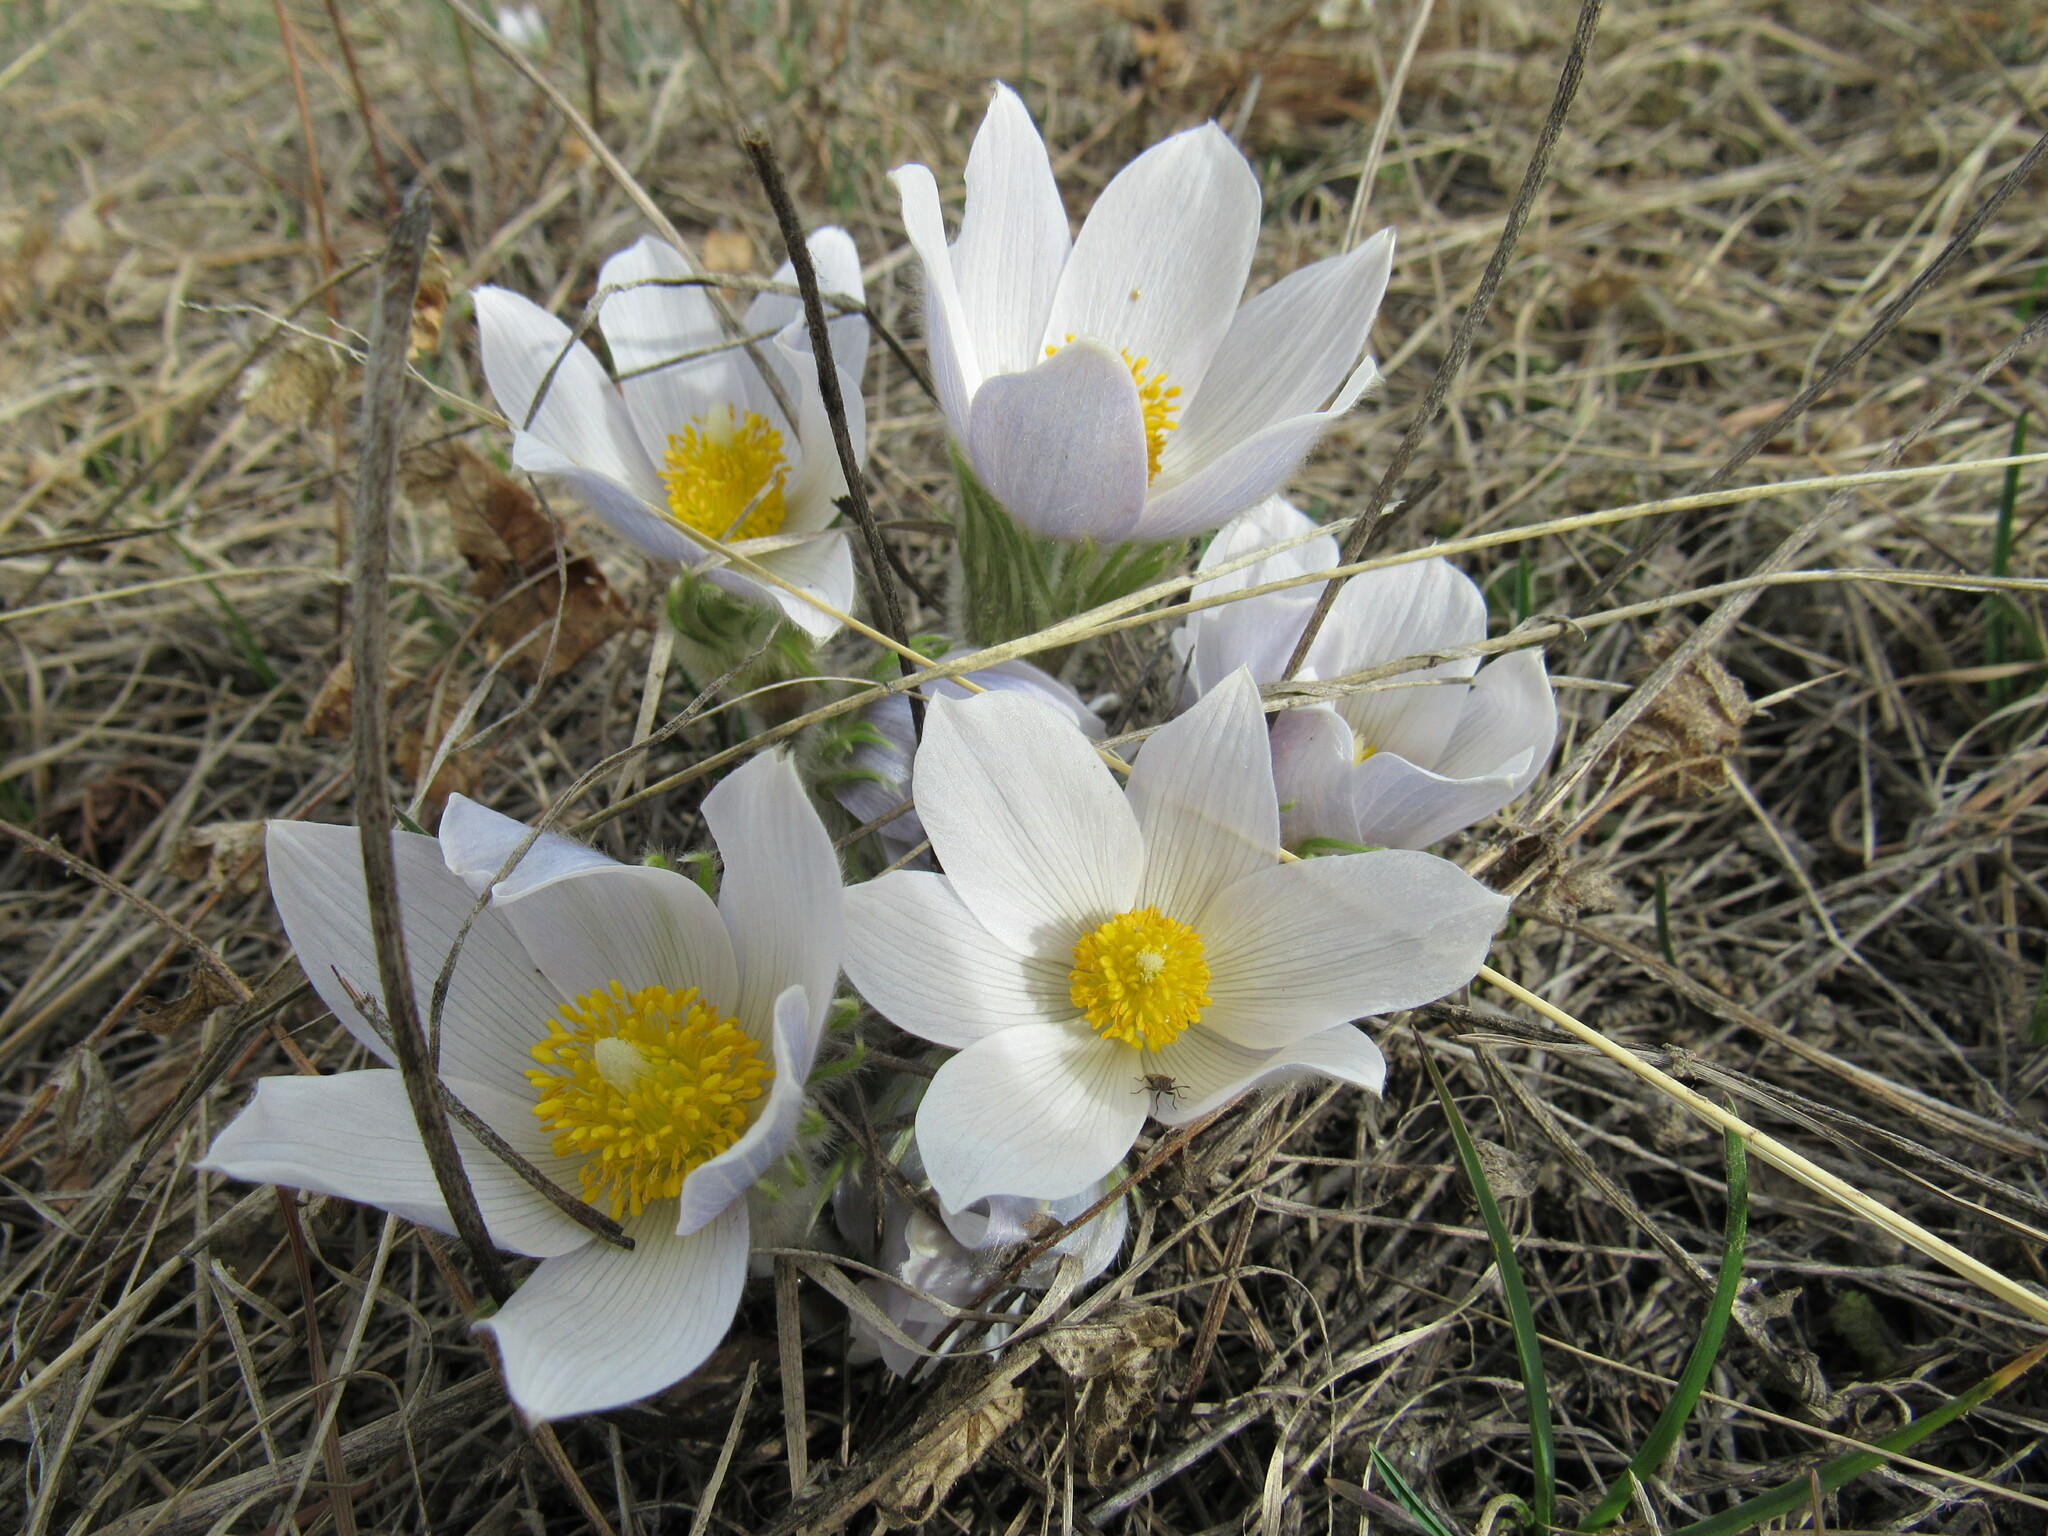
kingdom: Plantae
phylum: Tracheophyta
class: Magnoliopsida
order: Ranunculales
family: Ranunculaceae
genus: Pulsatilla
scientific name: Pulsatilla nuttalliana
